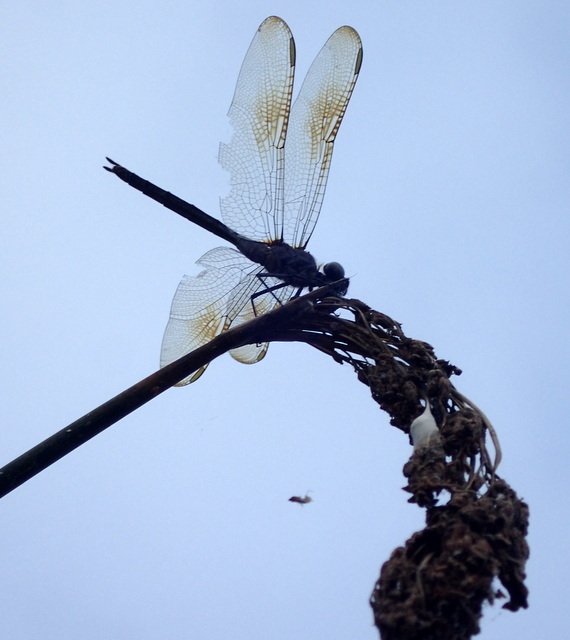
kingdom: Animalia
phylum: Arthropoda
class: Insecta
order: Odonata
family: Libellulidae
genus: Brachymesia
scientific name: Brachymesia gravida
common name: Four-spotted pennant
